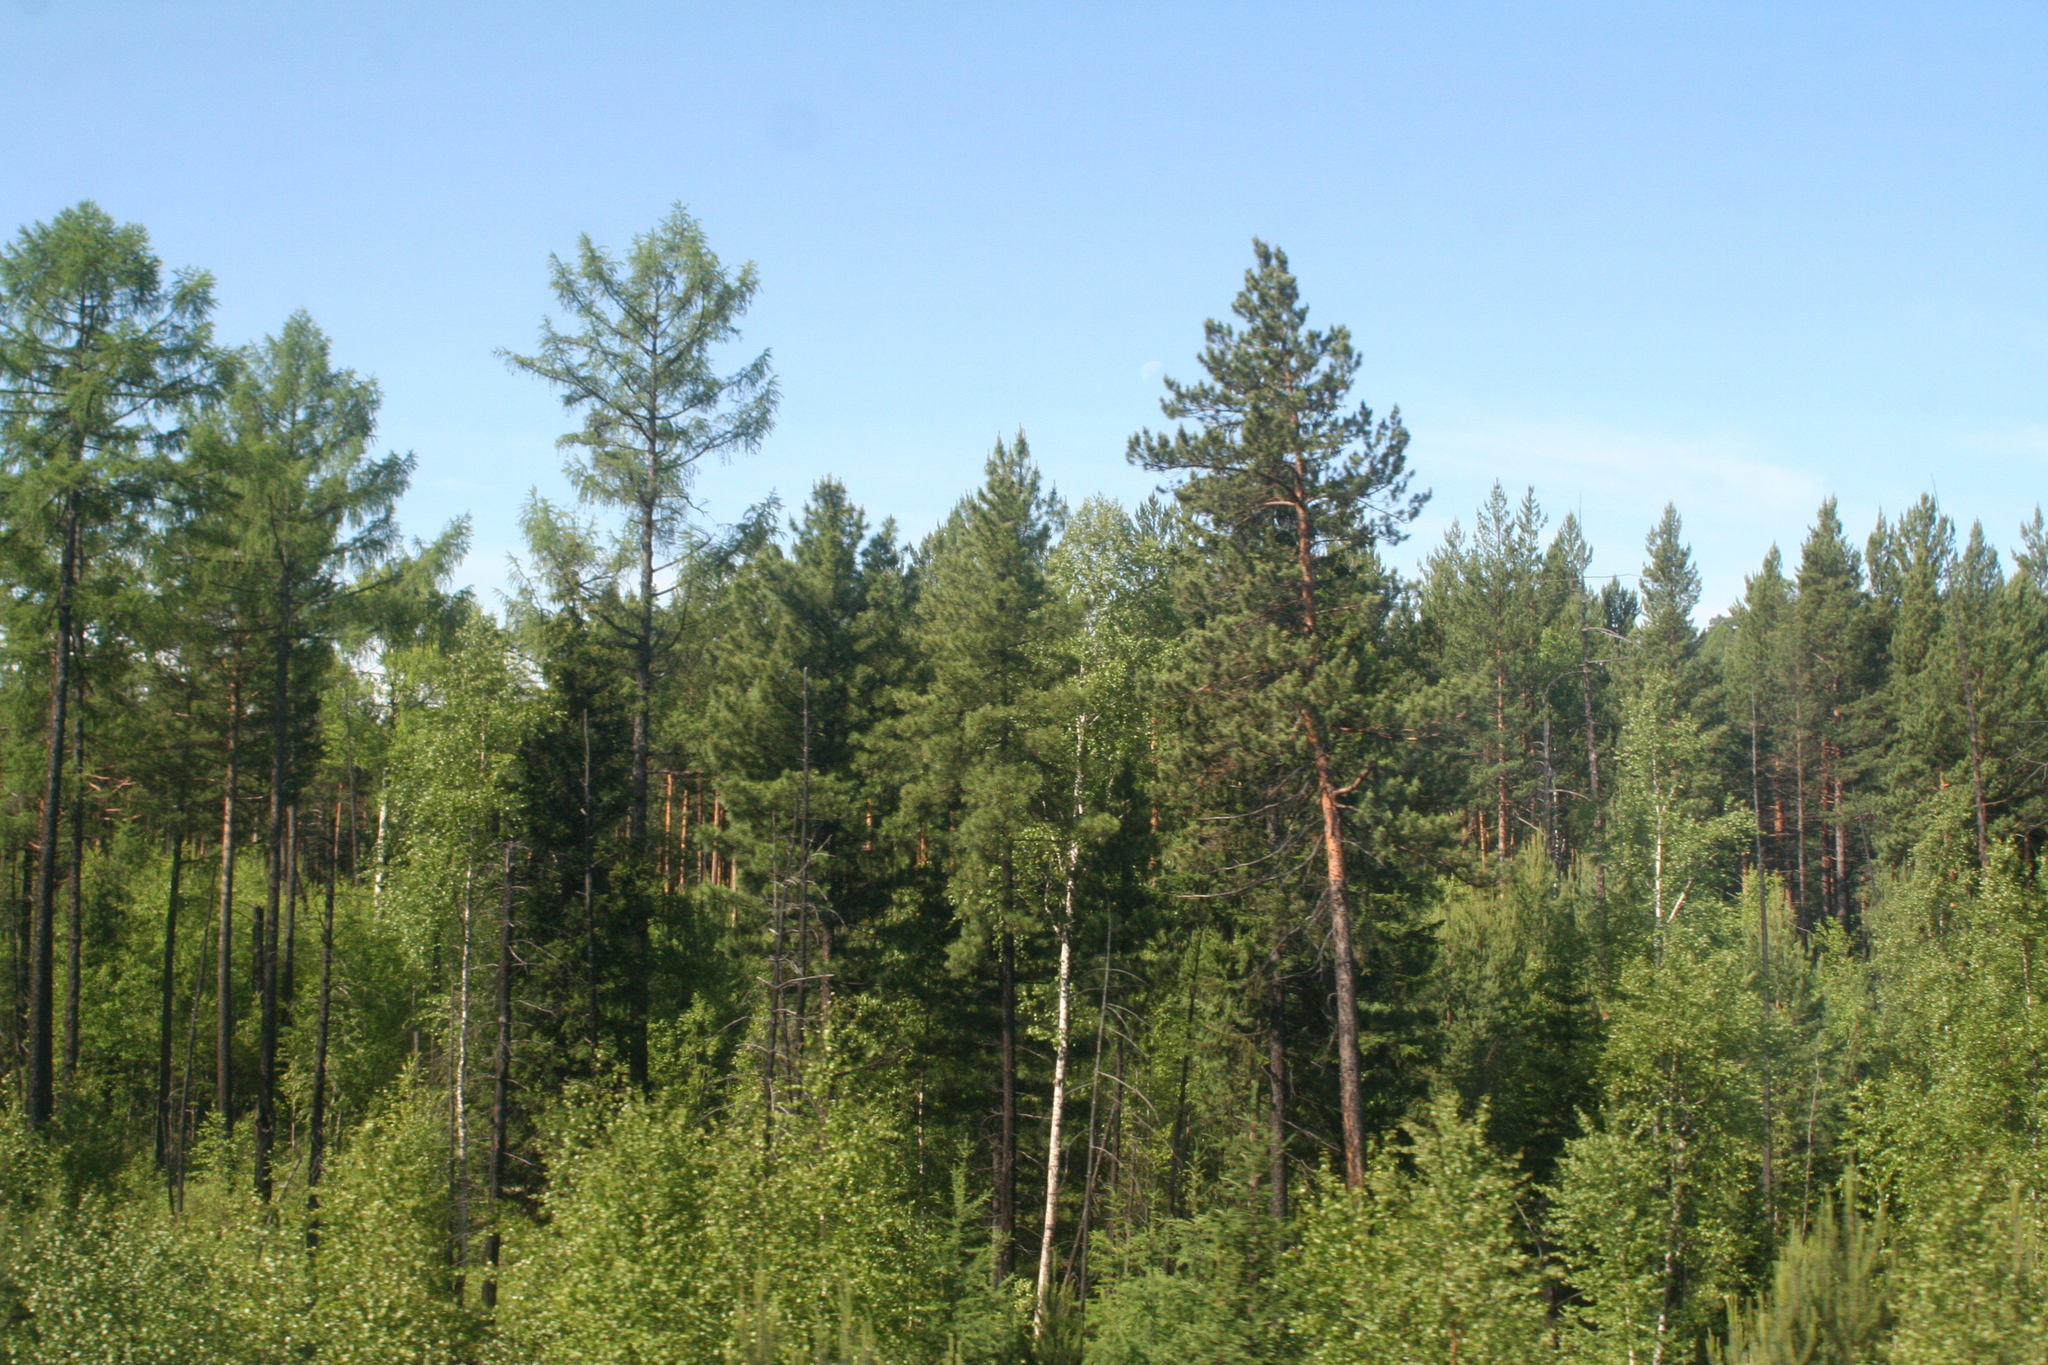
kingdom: Plantae
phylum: Tracheophyta
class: Pinopsida
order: Pinales
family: Pinaceae
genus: Pinus
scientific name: Pinus sylvestris
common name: Scots pine
